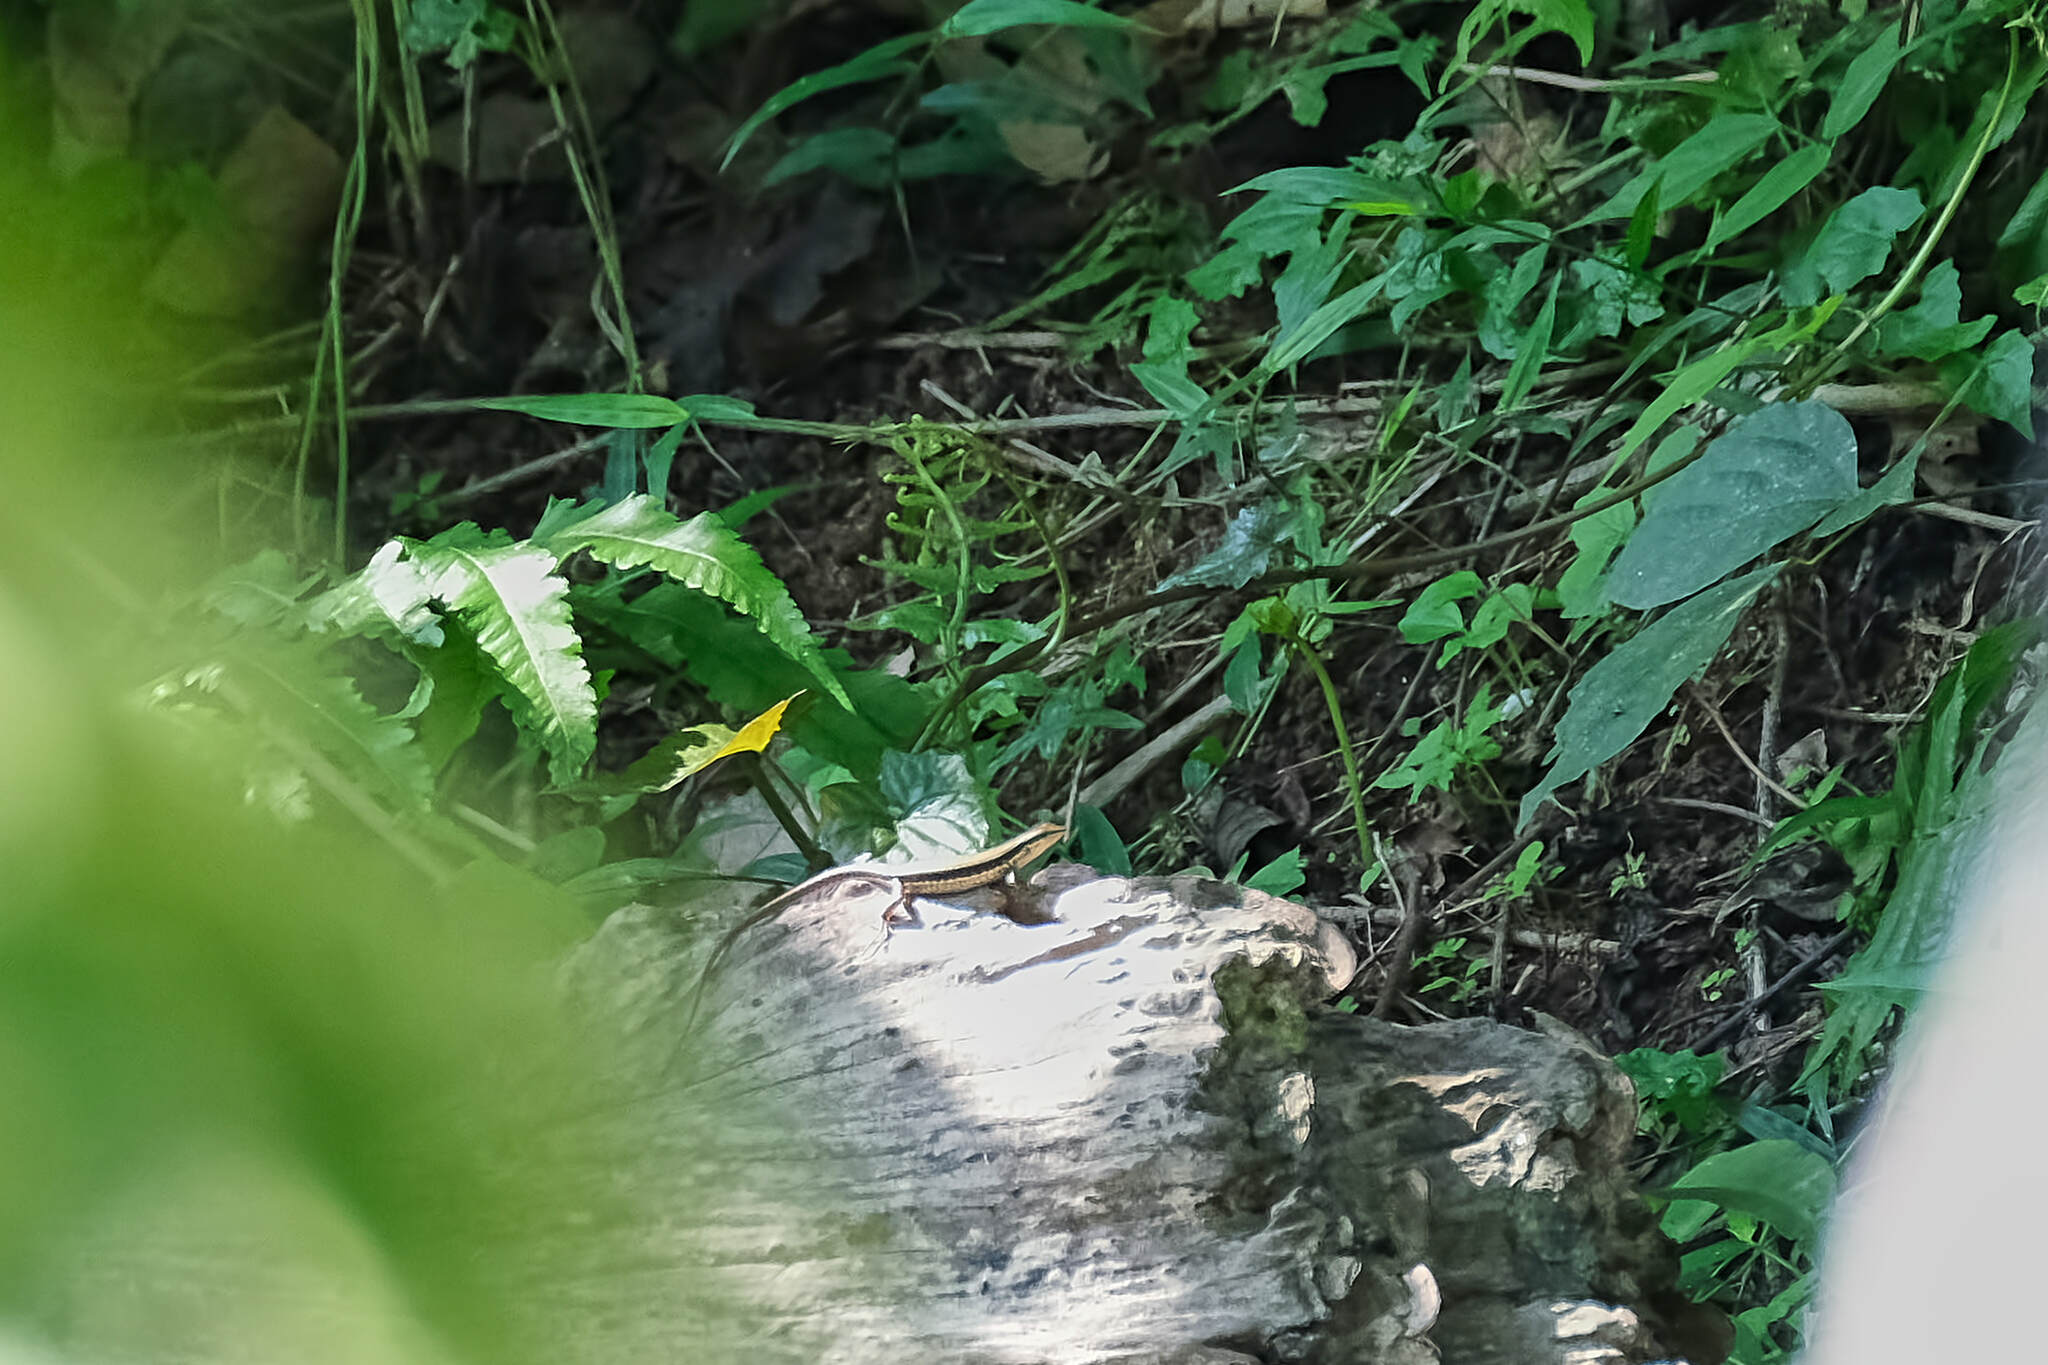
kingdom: Animalia
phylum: Chordata
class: Squamata
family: Scincidae
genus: Sphenomorphus
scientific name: Sphenomorphus maculatus
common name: Maculated forest skink
